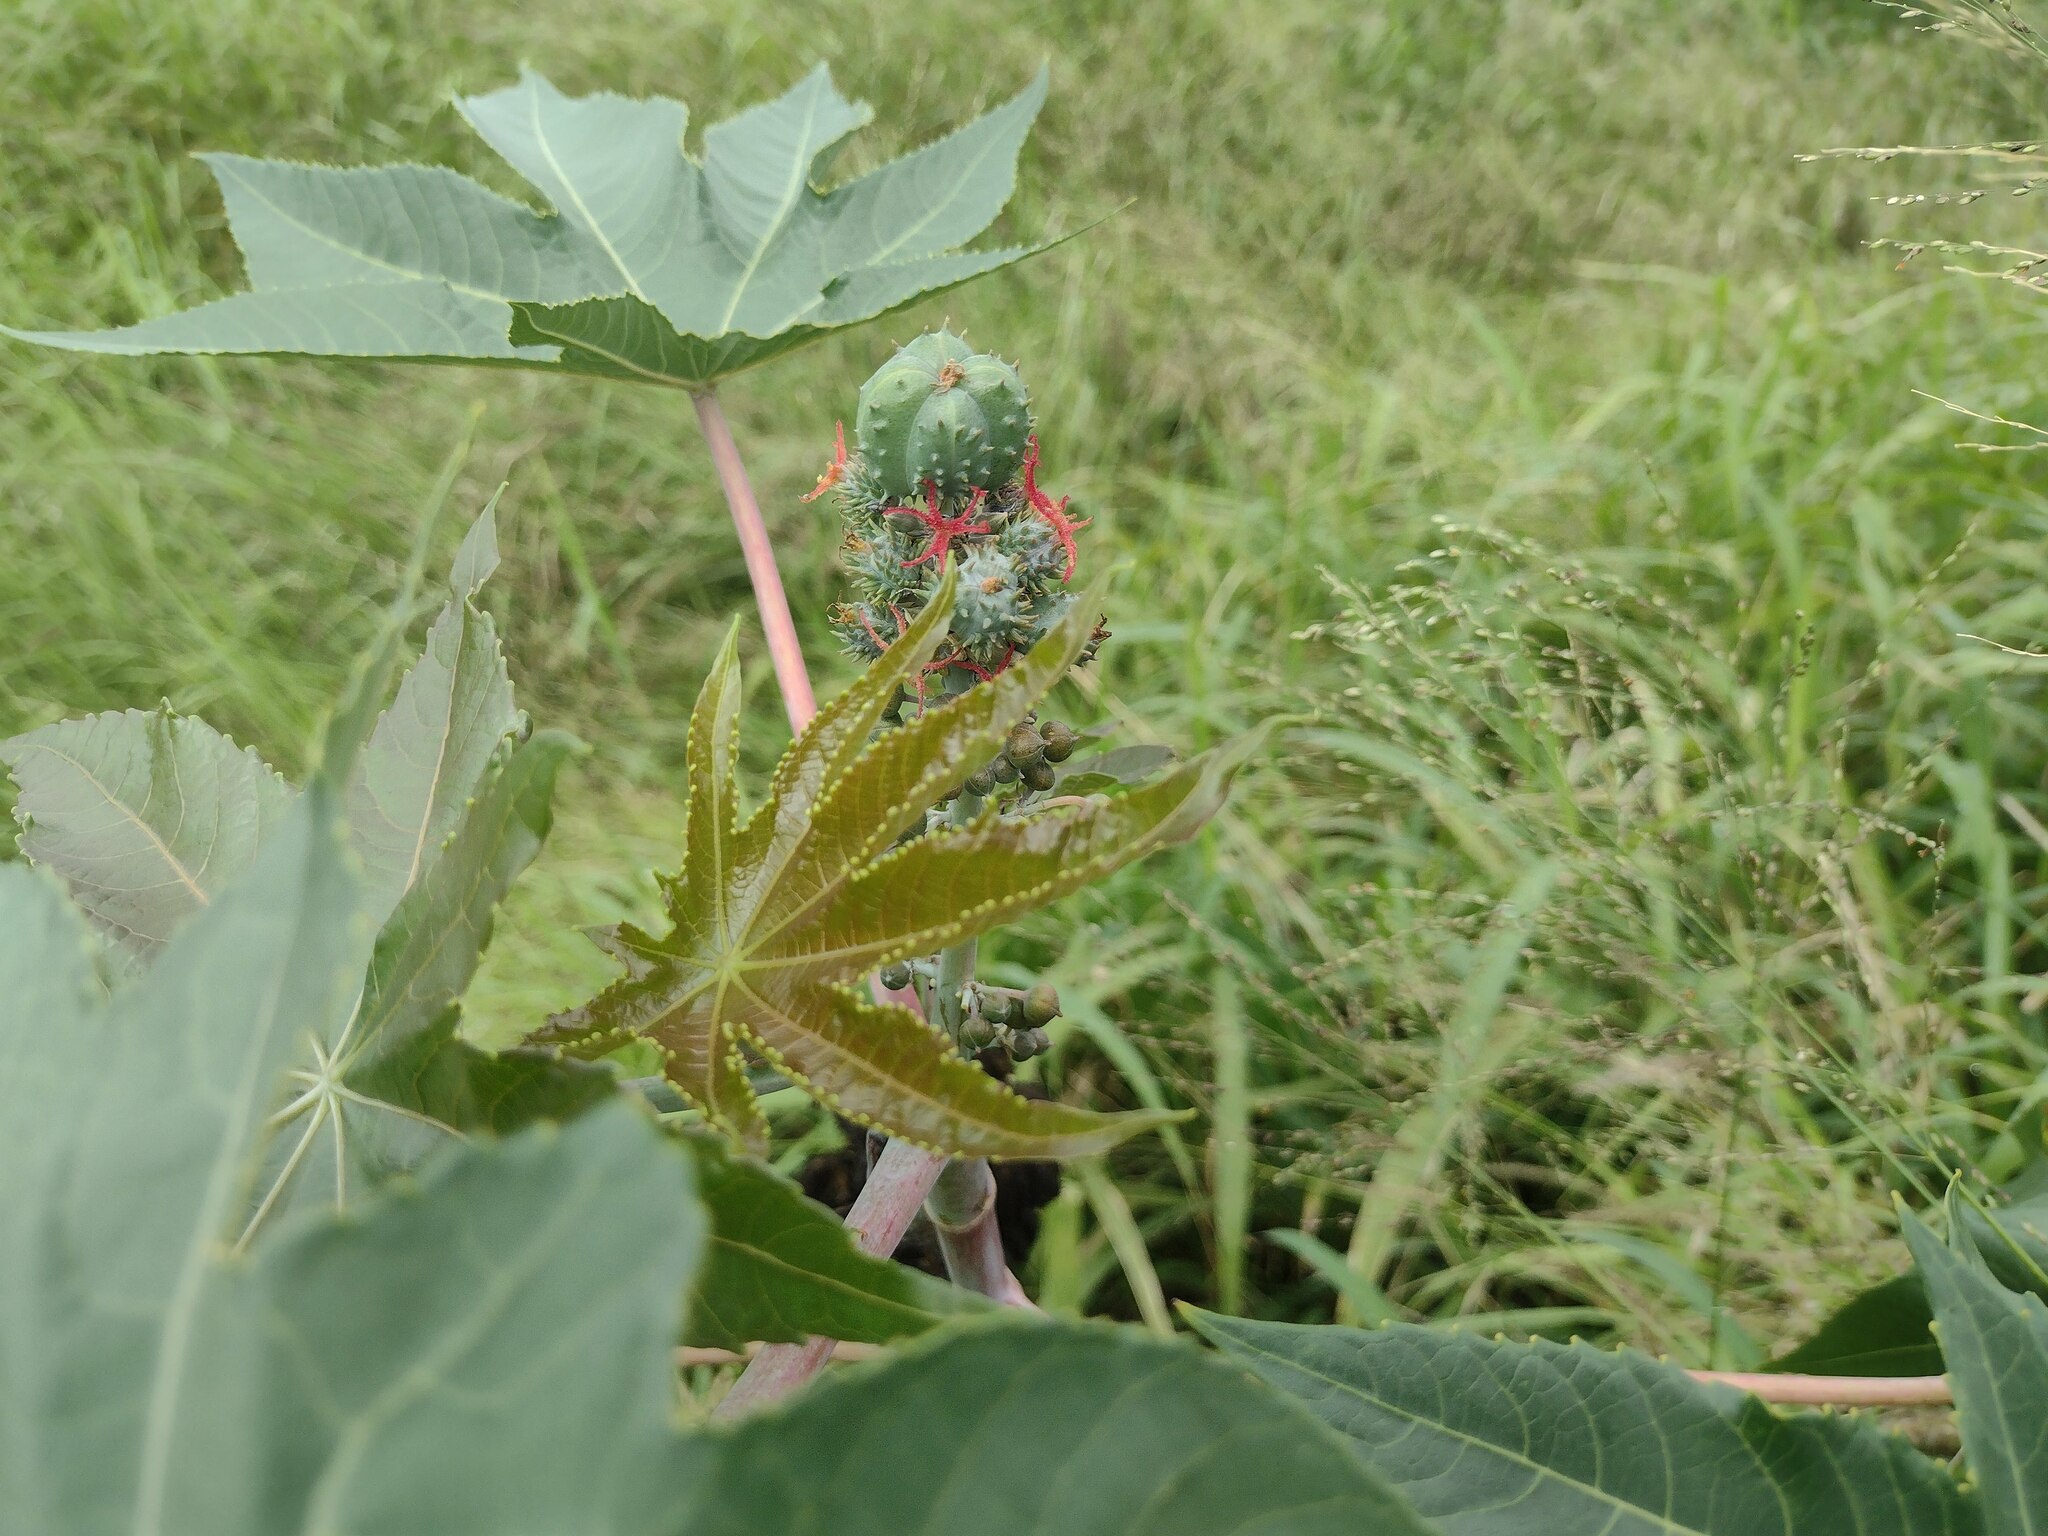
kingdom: Plantae
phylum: Tracheophyta
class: Magnoliopsida
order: Malpighiales
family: Euphorbiaceae
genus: Ricinus
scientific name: Ricinus communis
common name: Castor-oil-plant
